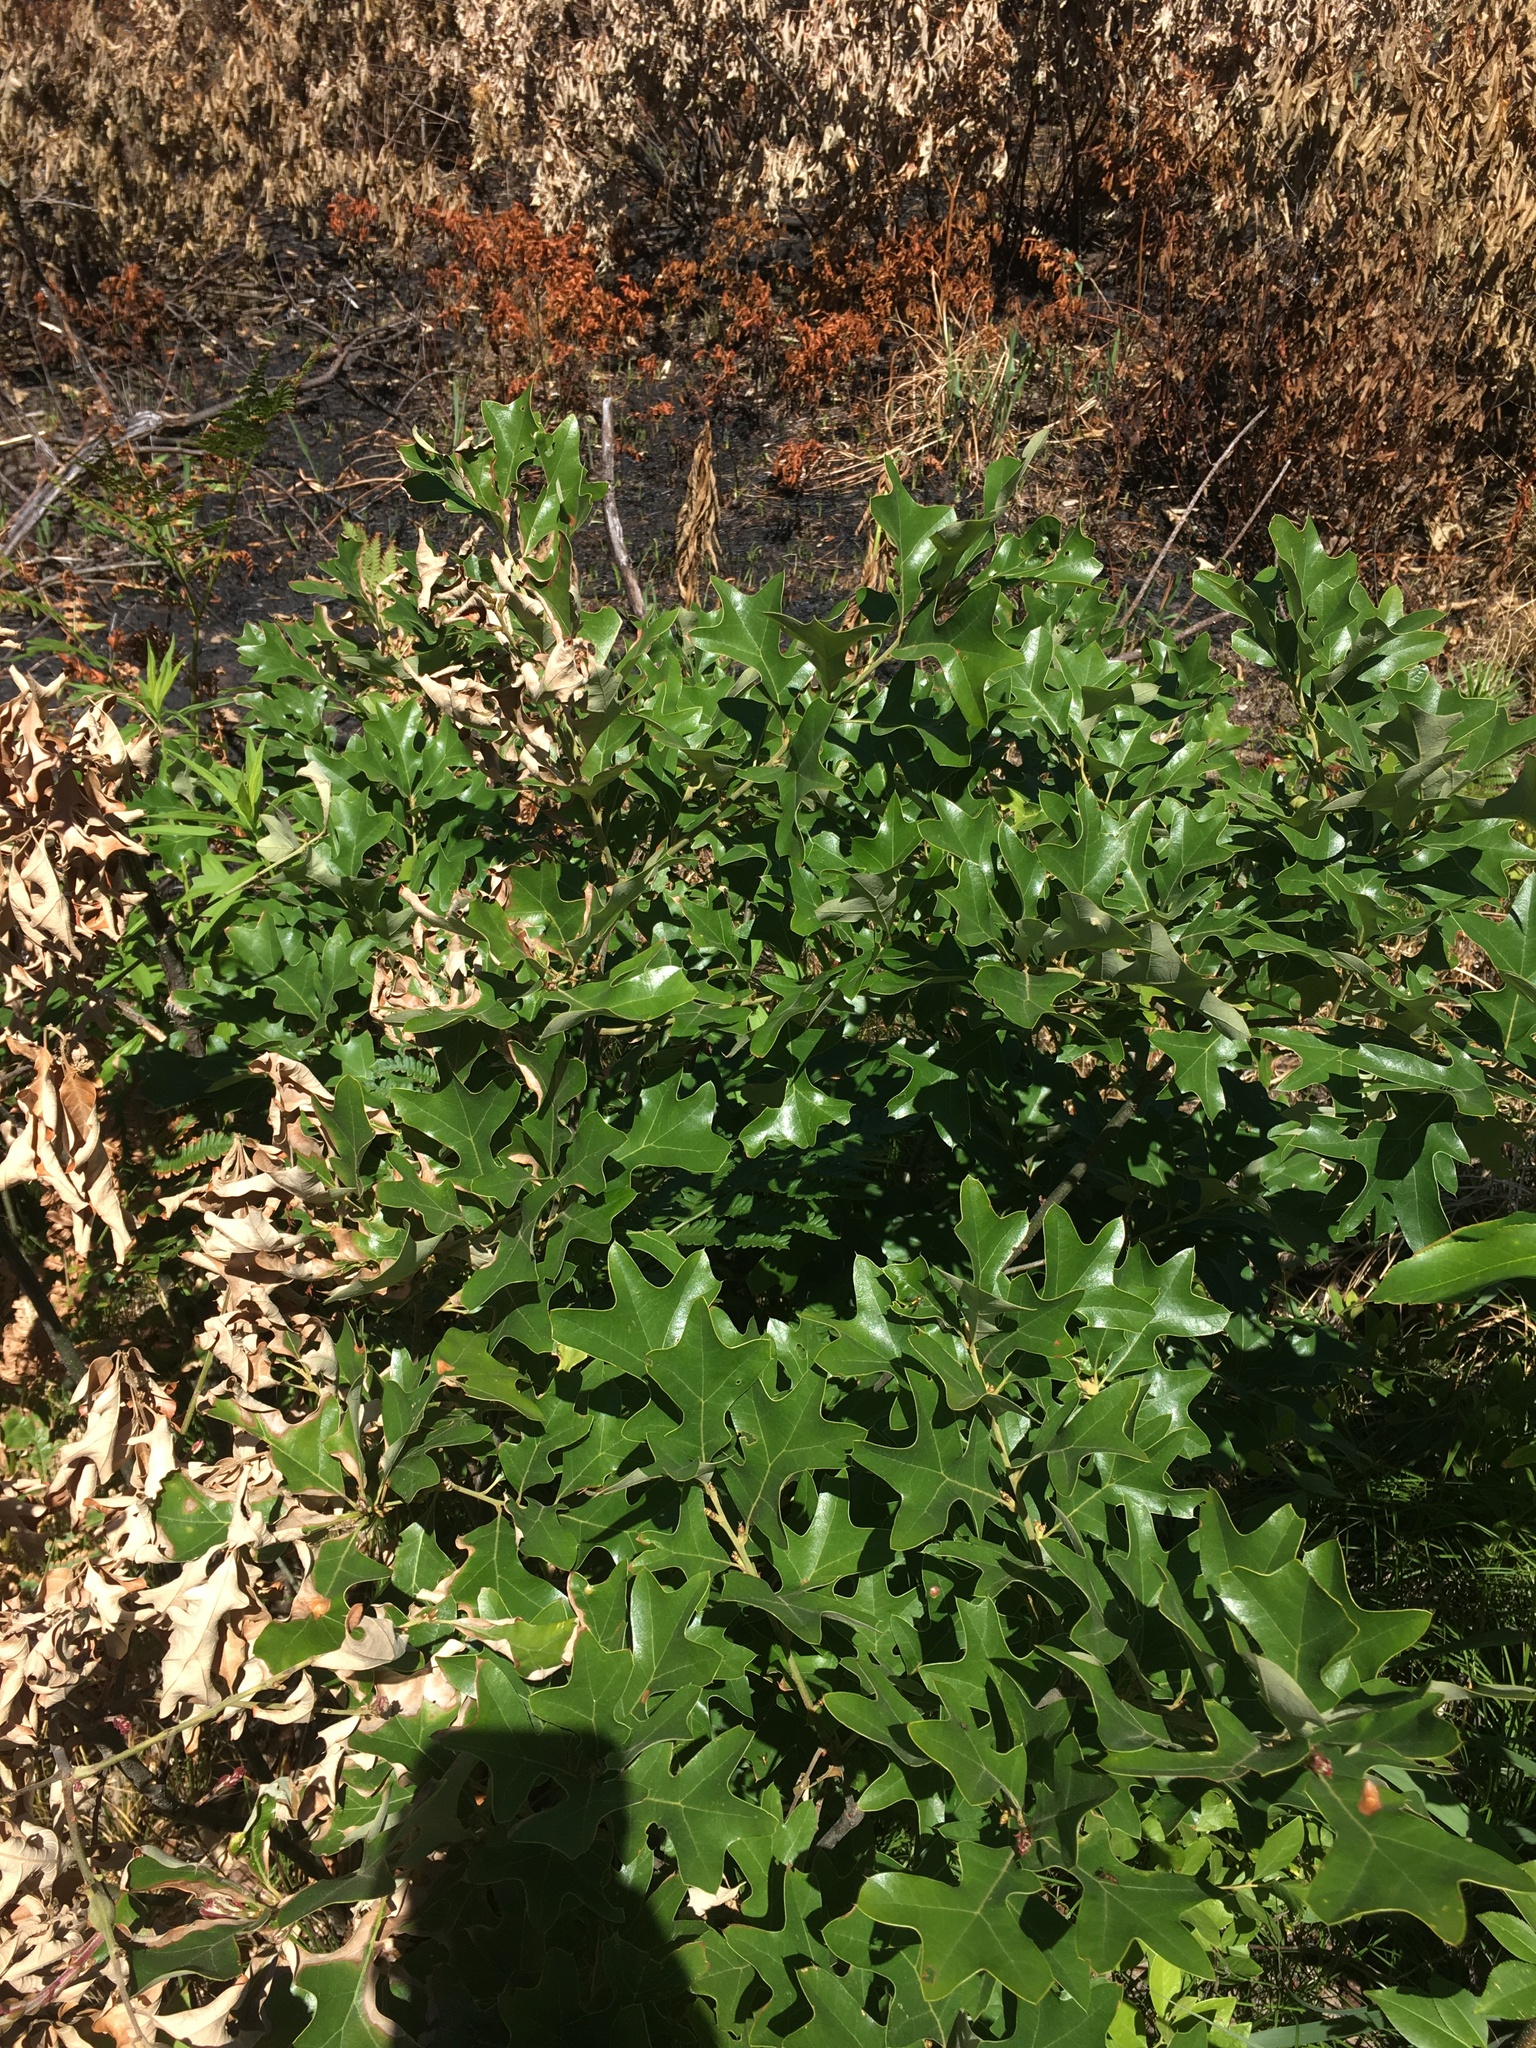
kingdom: Plantae
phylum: Tracheophyta
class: Magnoliopsida
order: Fagales
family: Fagaceae
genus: Quercus
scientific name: Quercus ilicifolia
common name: Bear oak
